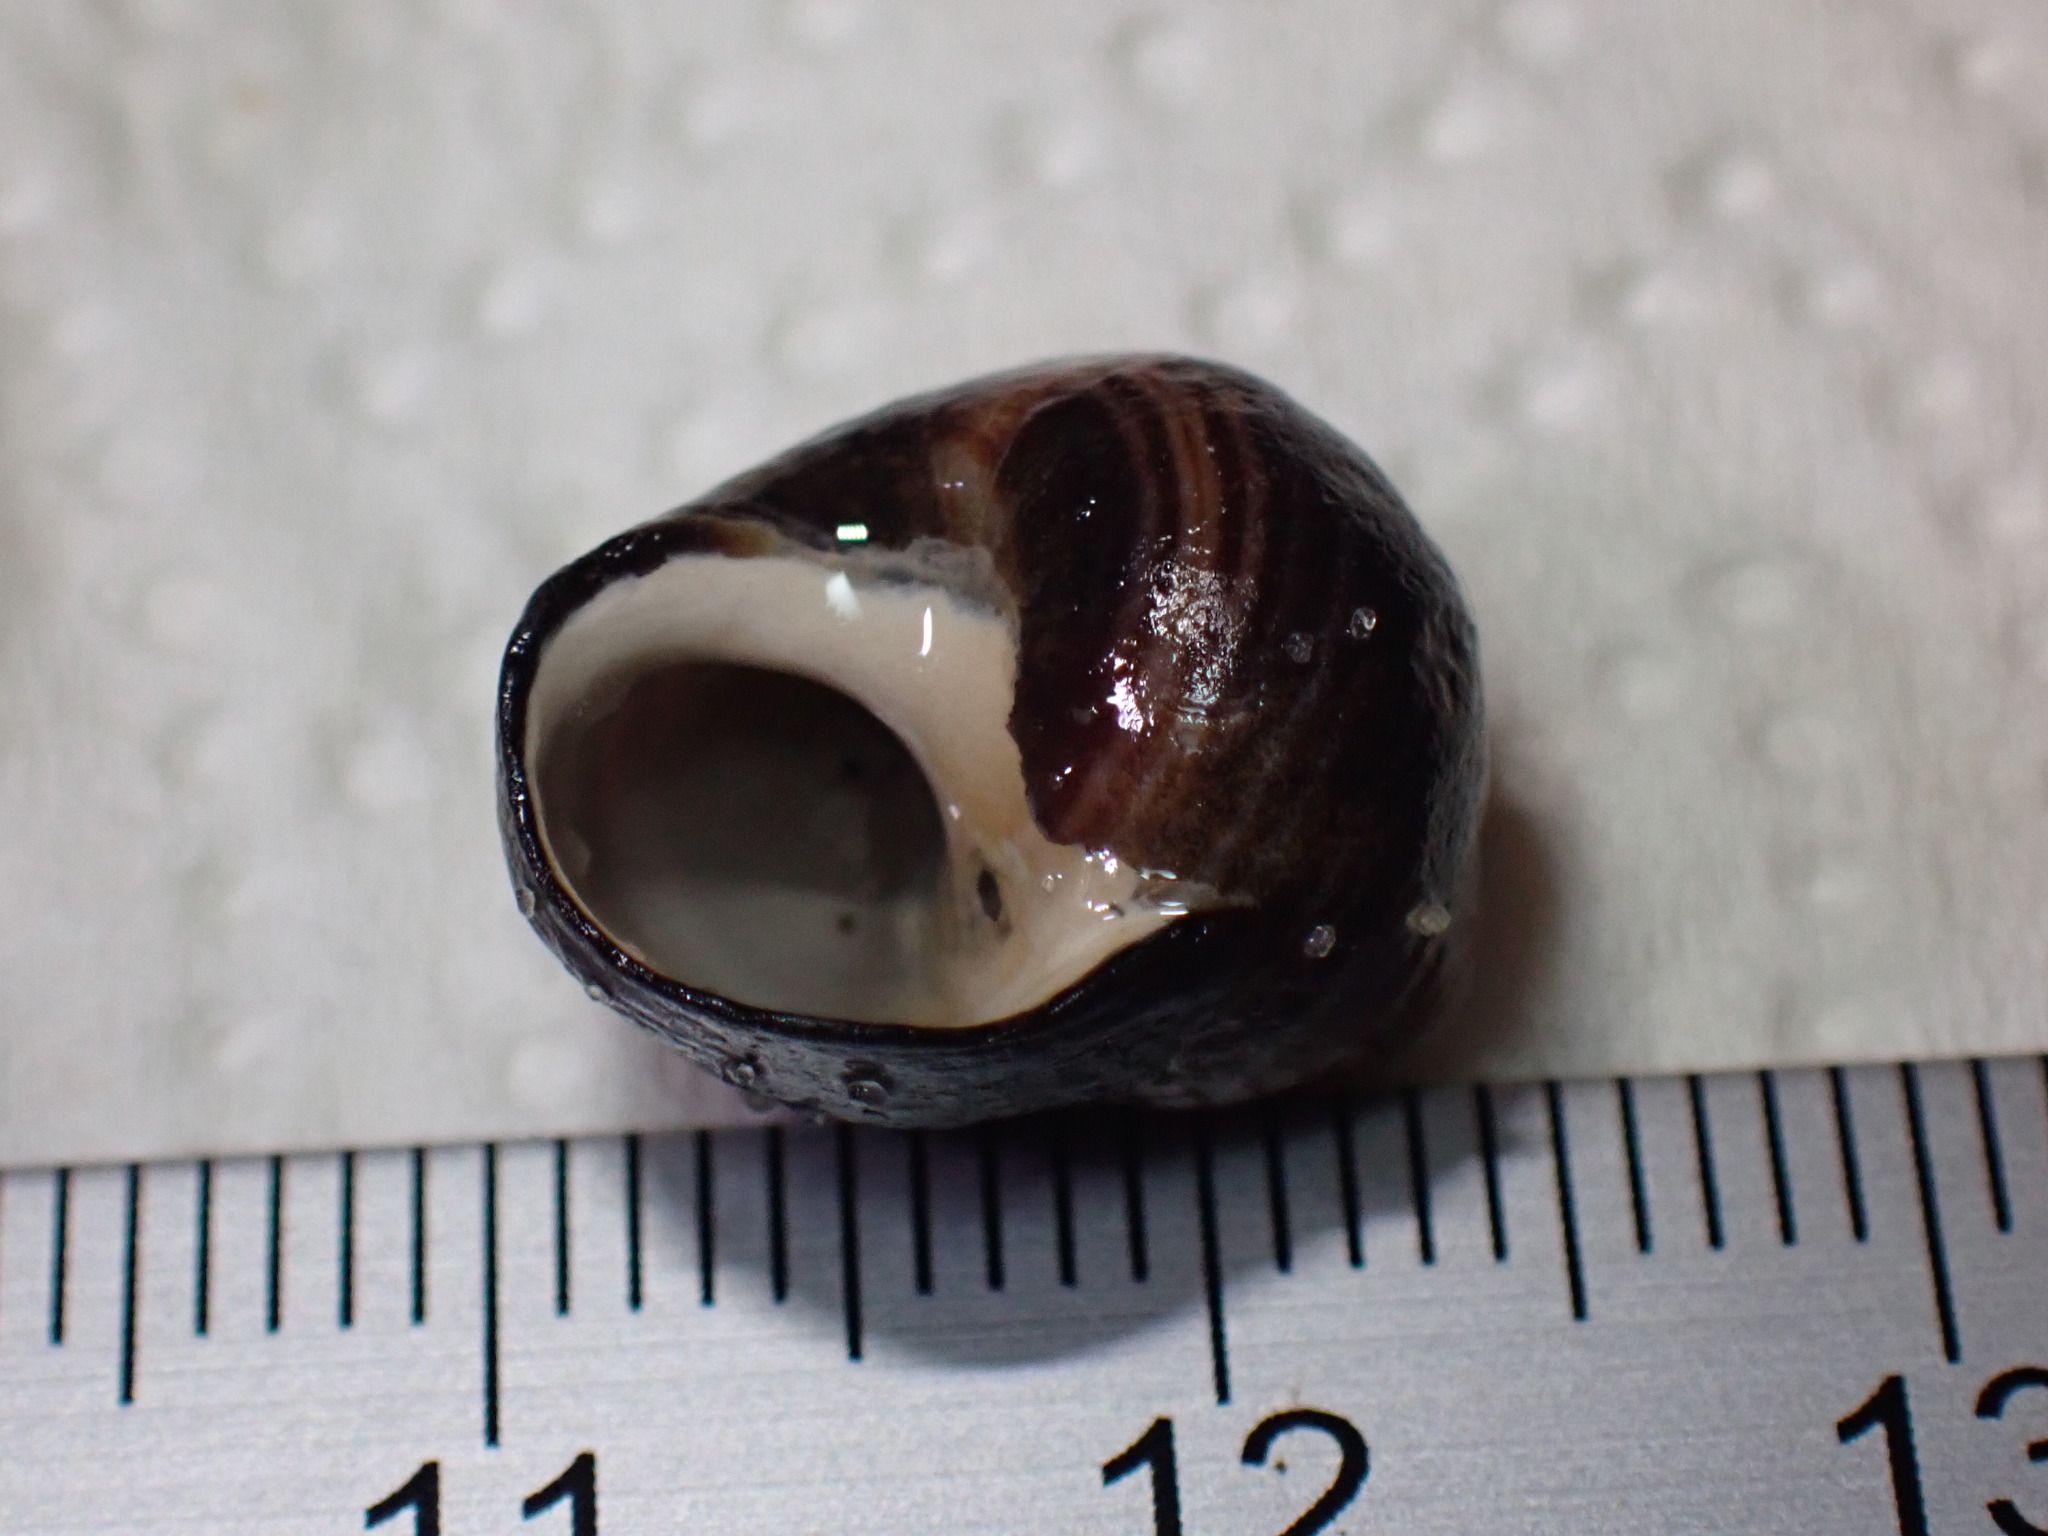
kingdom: Animalia
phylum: Mollusca
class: Gastropoda
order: Littorinimorpha
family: Littorinidae
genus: Littorina
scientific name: Littorina littorea
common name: Common periwinkle
